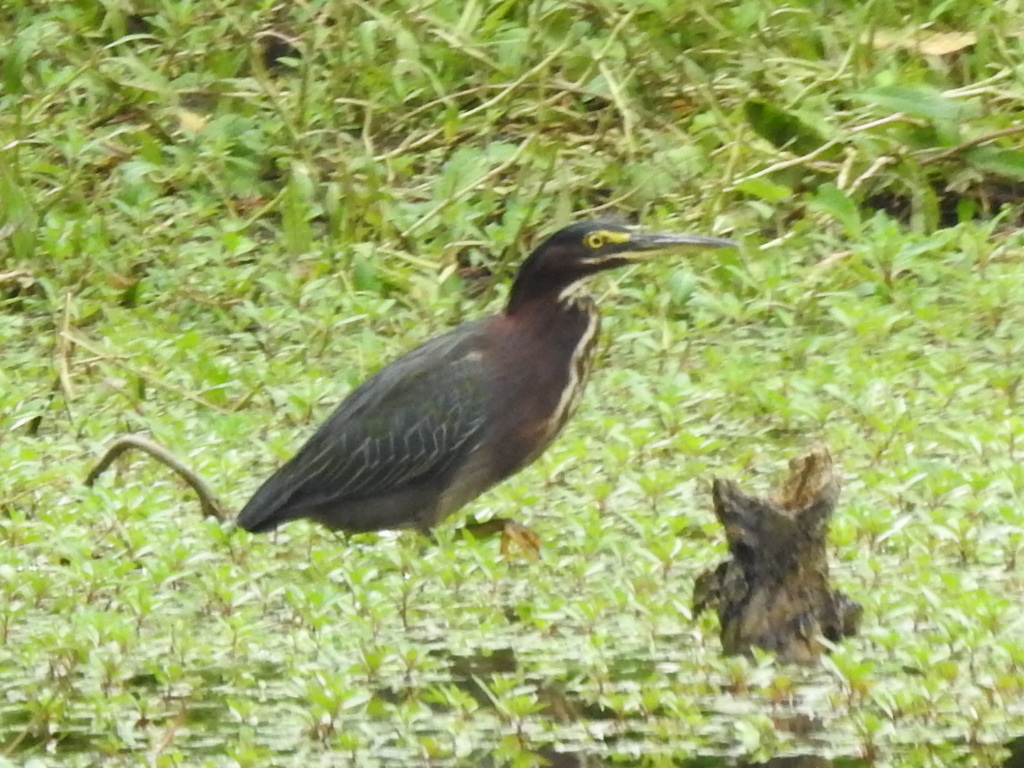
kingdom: Animalia
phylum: Chordata
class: Aves
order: Pelecaniformes
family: Ardeidae
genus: Butorides
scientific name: Butorides virescens
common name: Green heron
